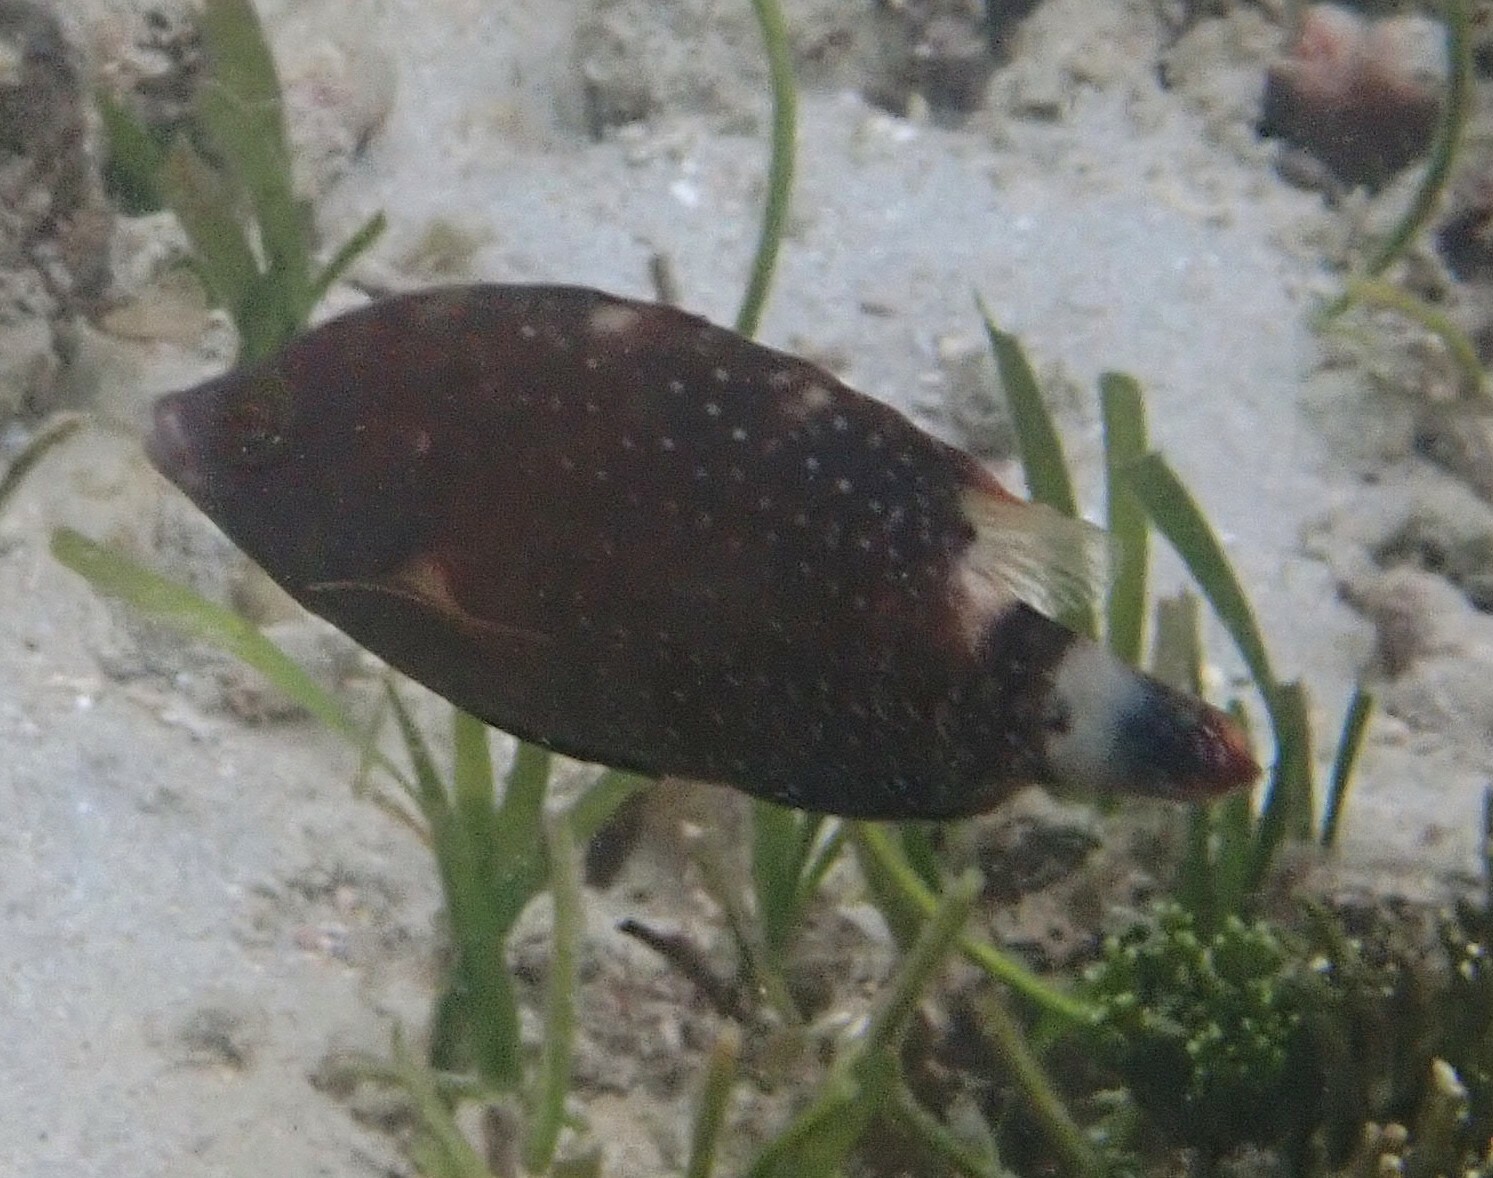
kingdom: Animalia
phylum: Chordata
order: Perciformes
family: Labridae
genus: Cheilinus
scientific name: Cheilinus chlorourus
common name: Floral wrasse
